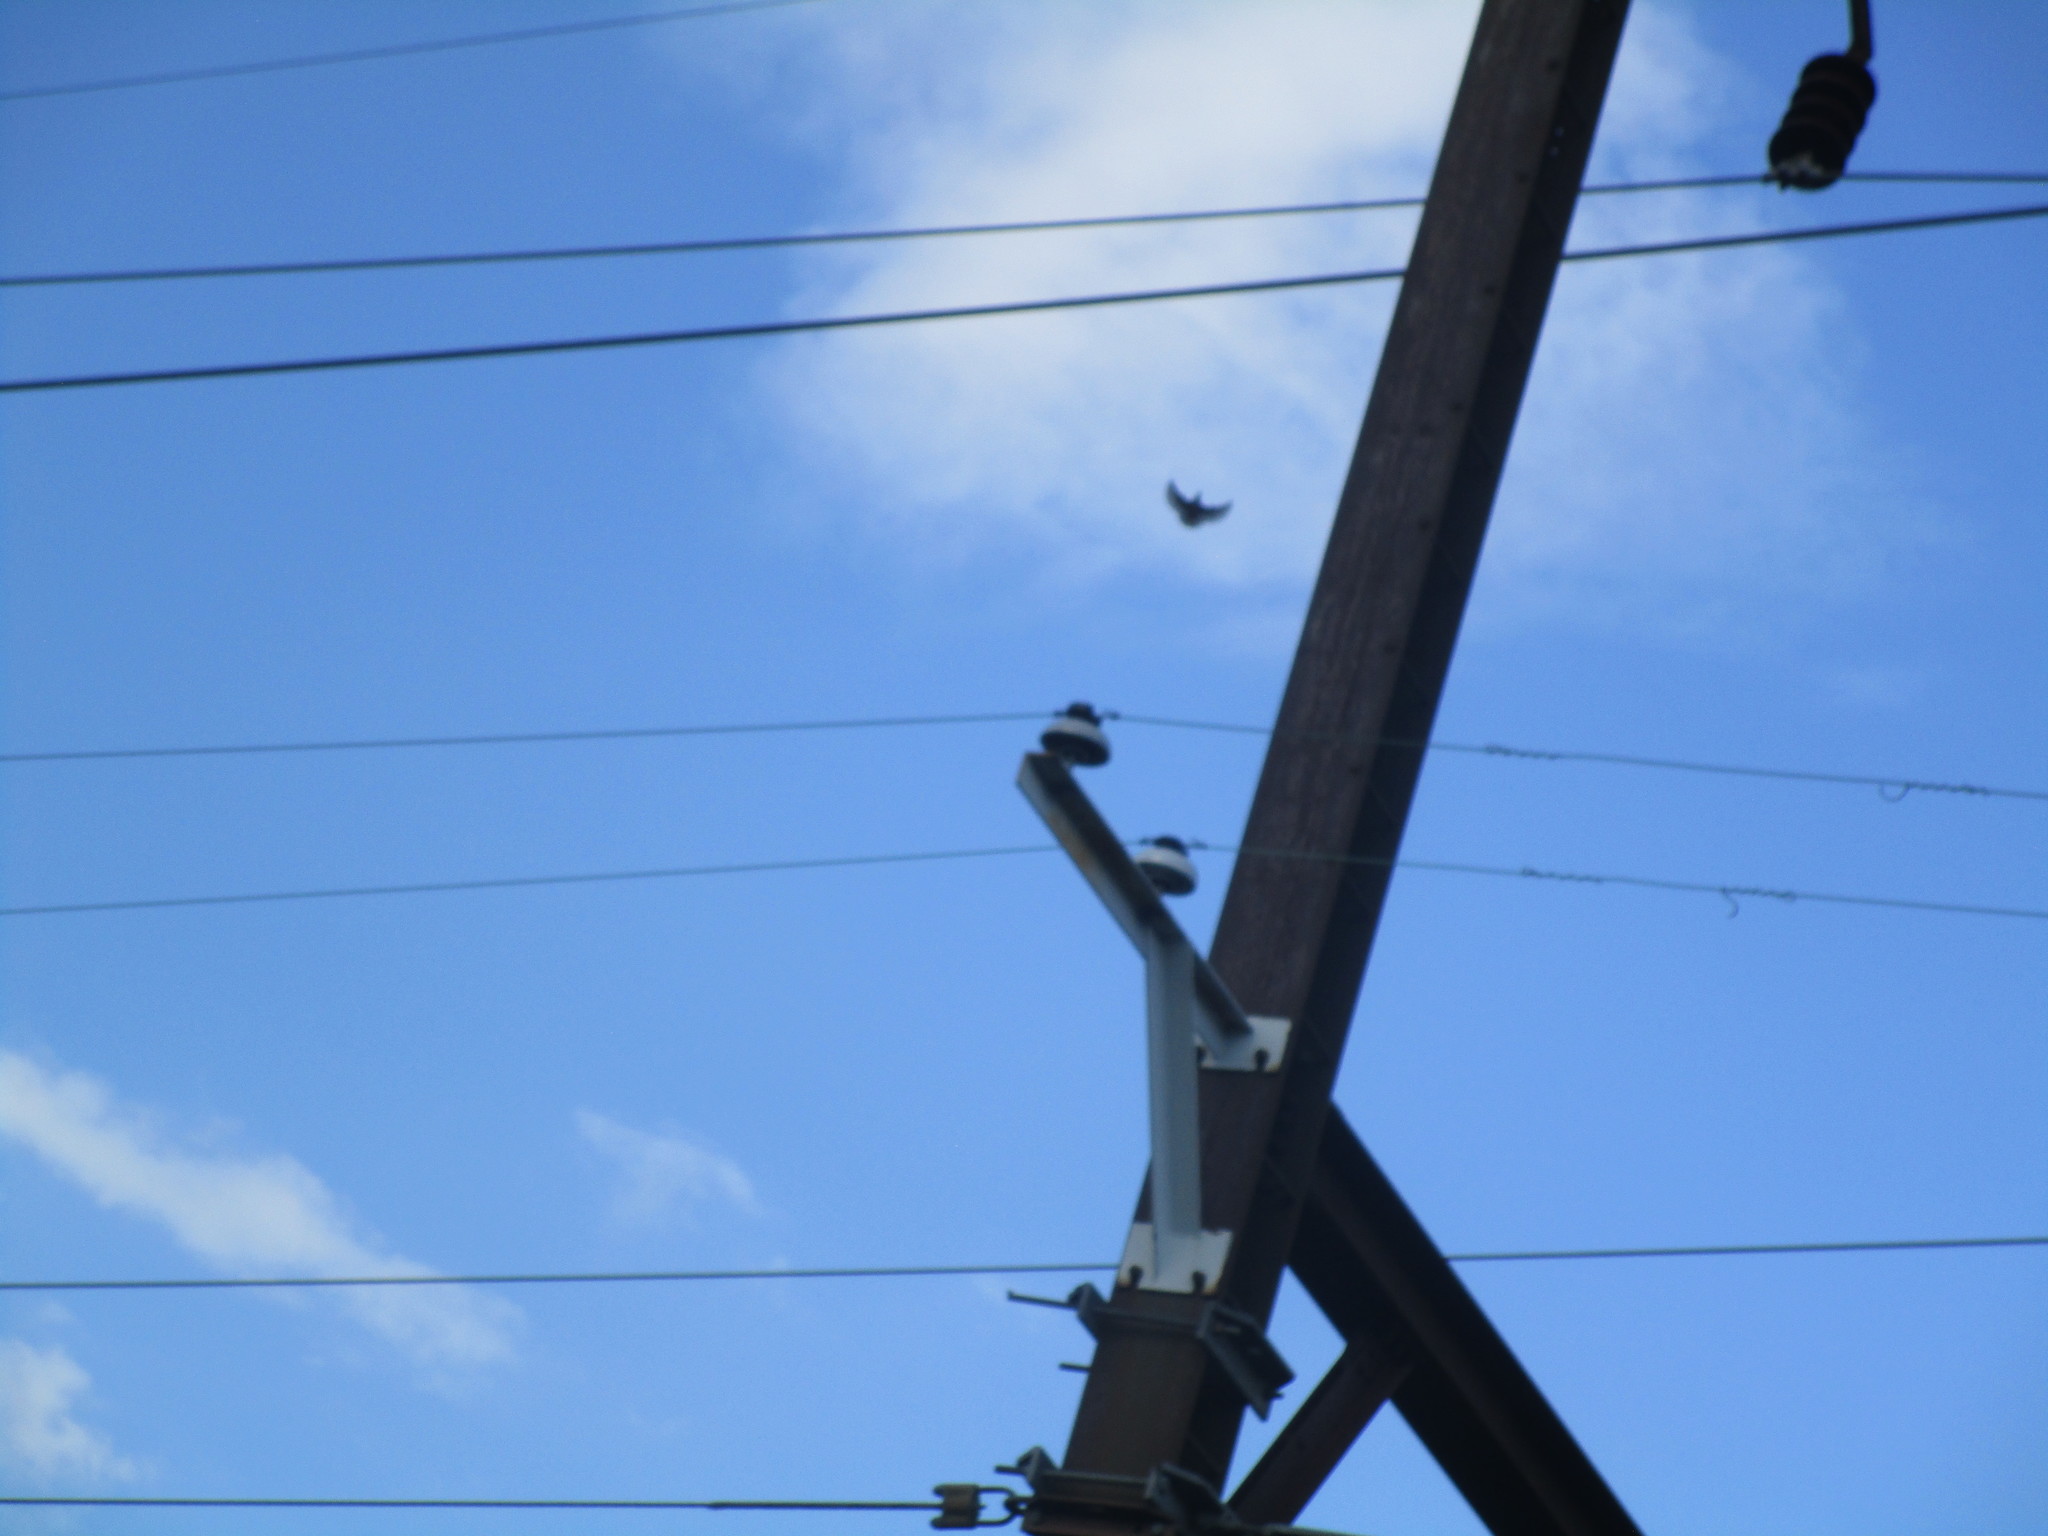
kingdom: Animalia
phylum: Chordata
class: Aves
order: Passeriformes
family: Sturnidae
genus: Sturnus
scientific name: Sturnus vulgaris
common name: Common starling
